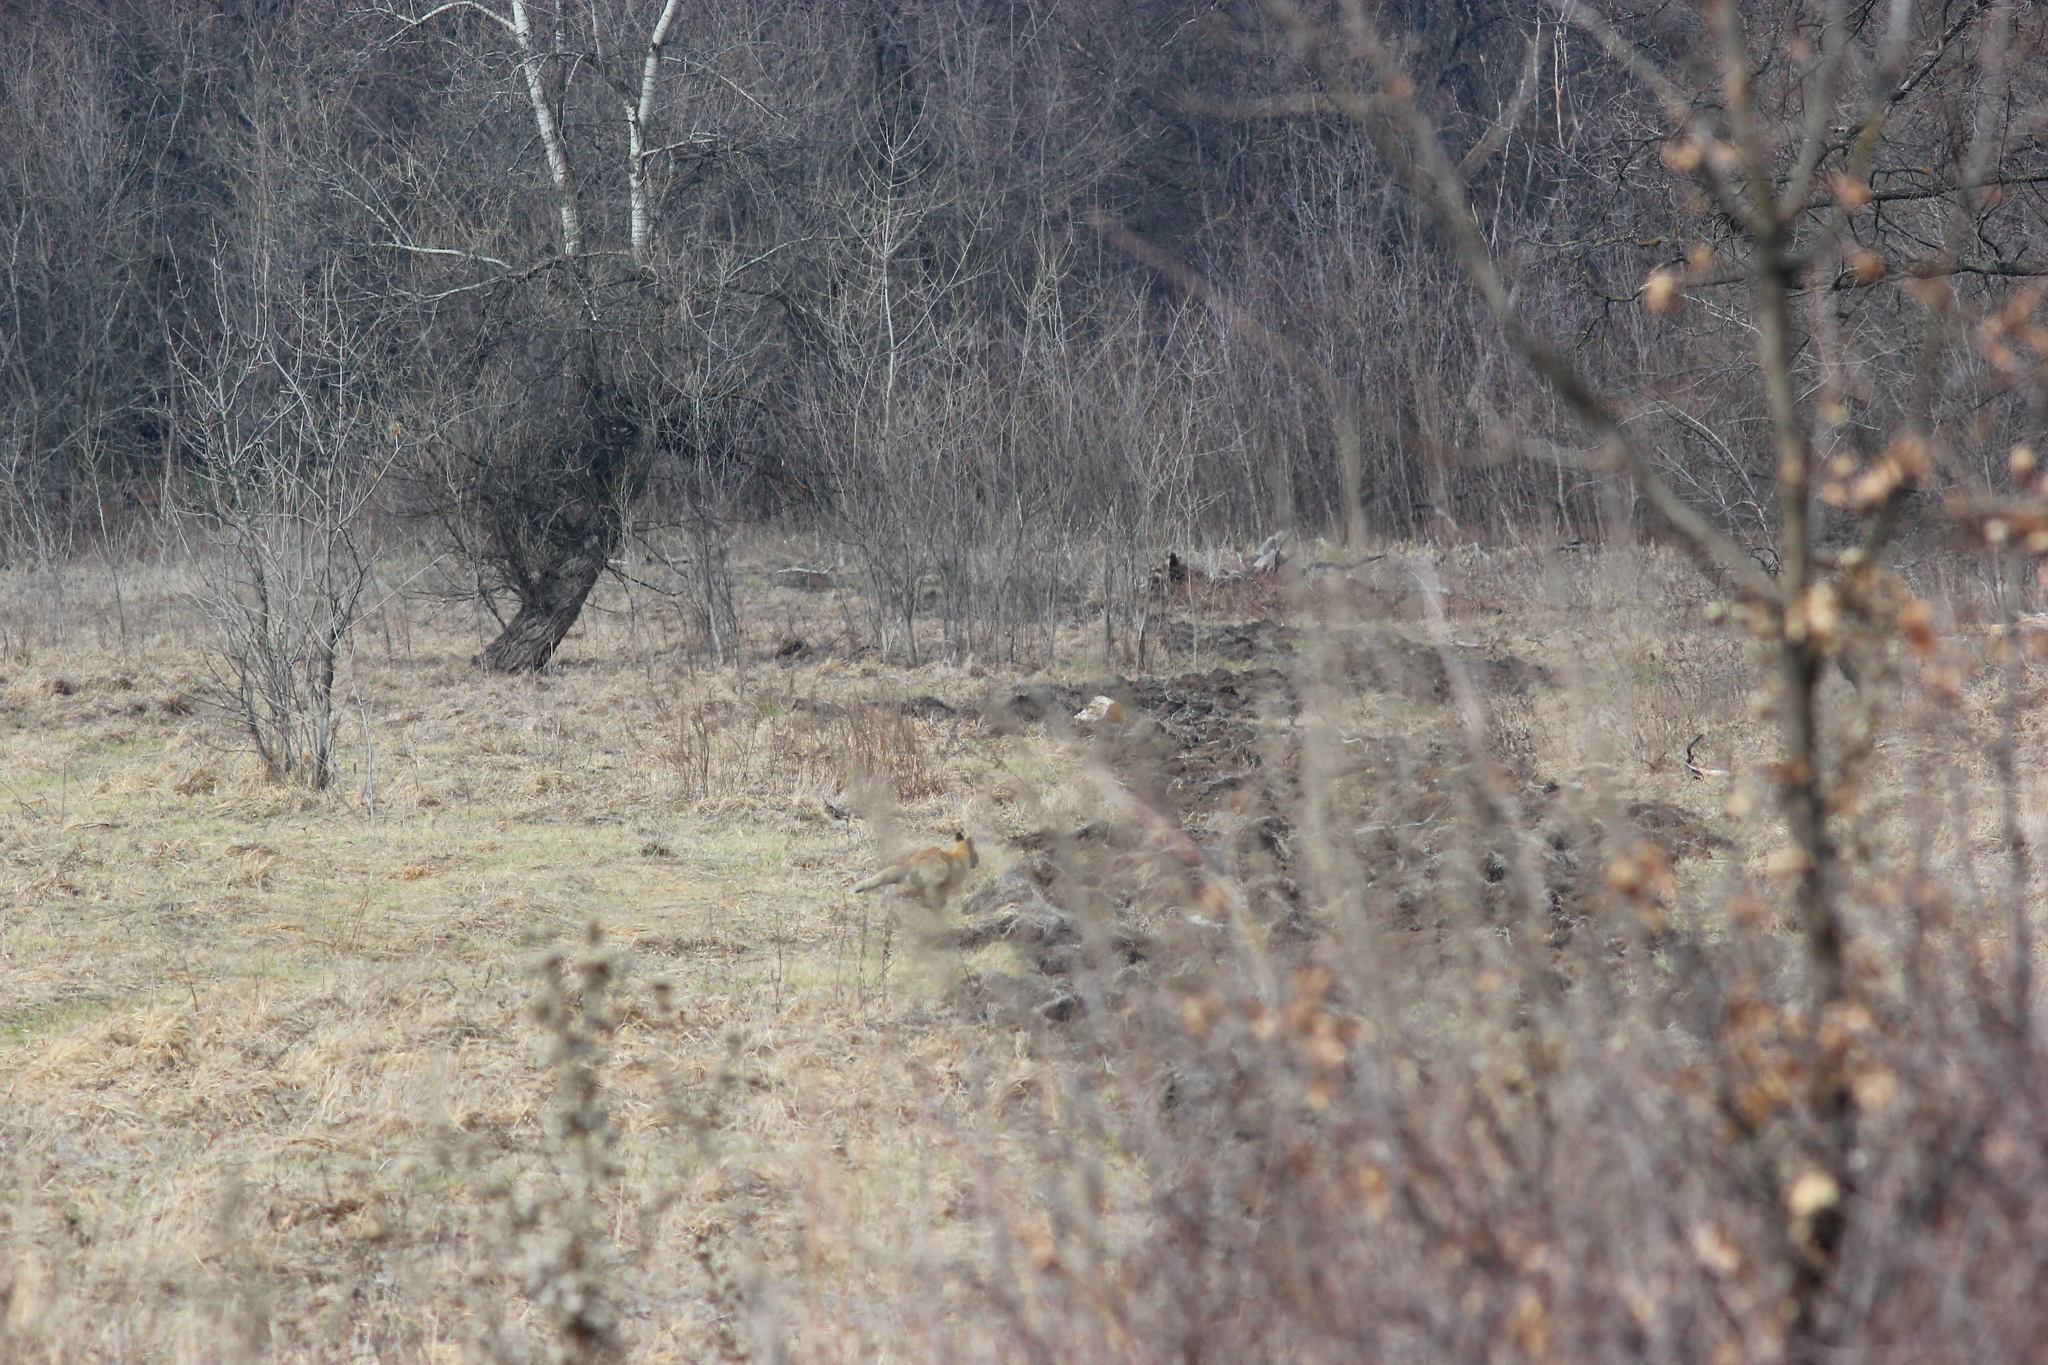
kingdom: Animalia
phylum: Chordata
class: Mammalia
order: Carnivora
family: Canidae
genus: Vulpes
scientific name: Vulpes vulpes
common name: Red fox
